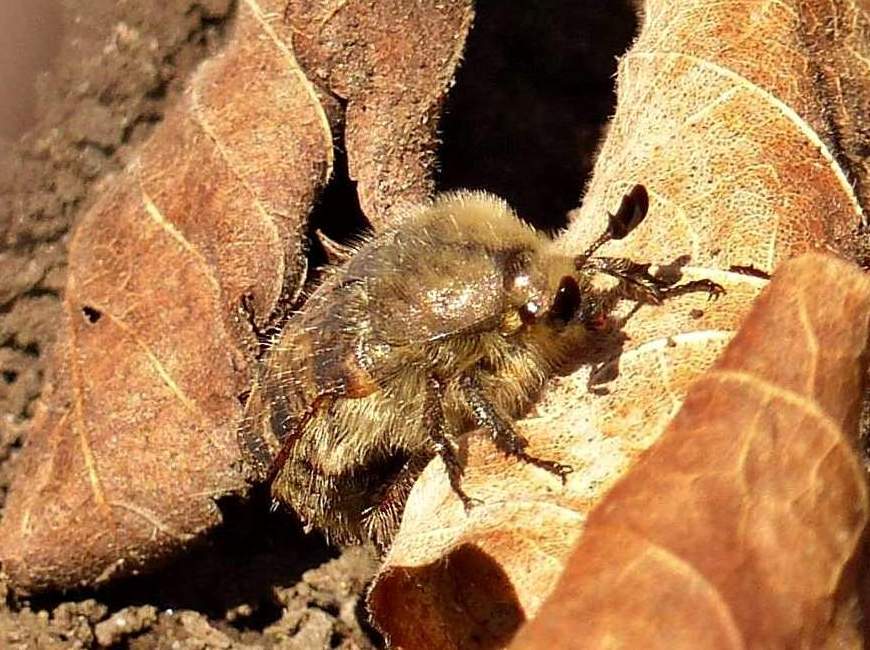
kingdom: Animalia
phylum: Arthropoda
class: Insecta
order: Coleoptera
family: Scarabaeidae
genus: Euphoria
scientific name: Euphoria inda
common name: Bumble flower beetle
